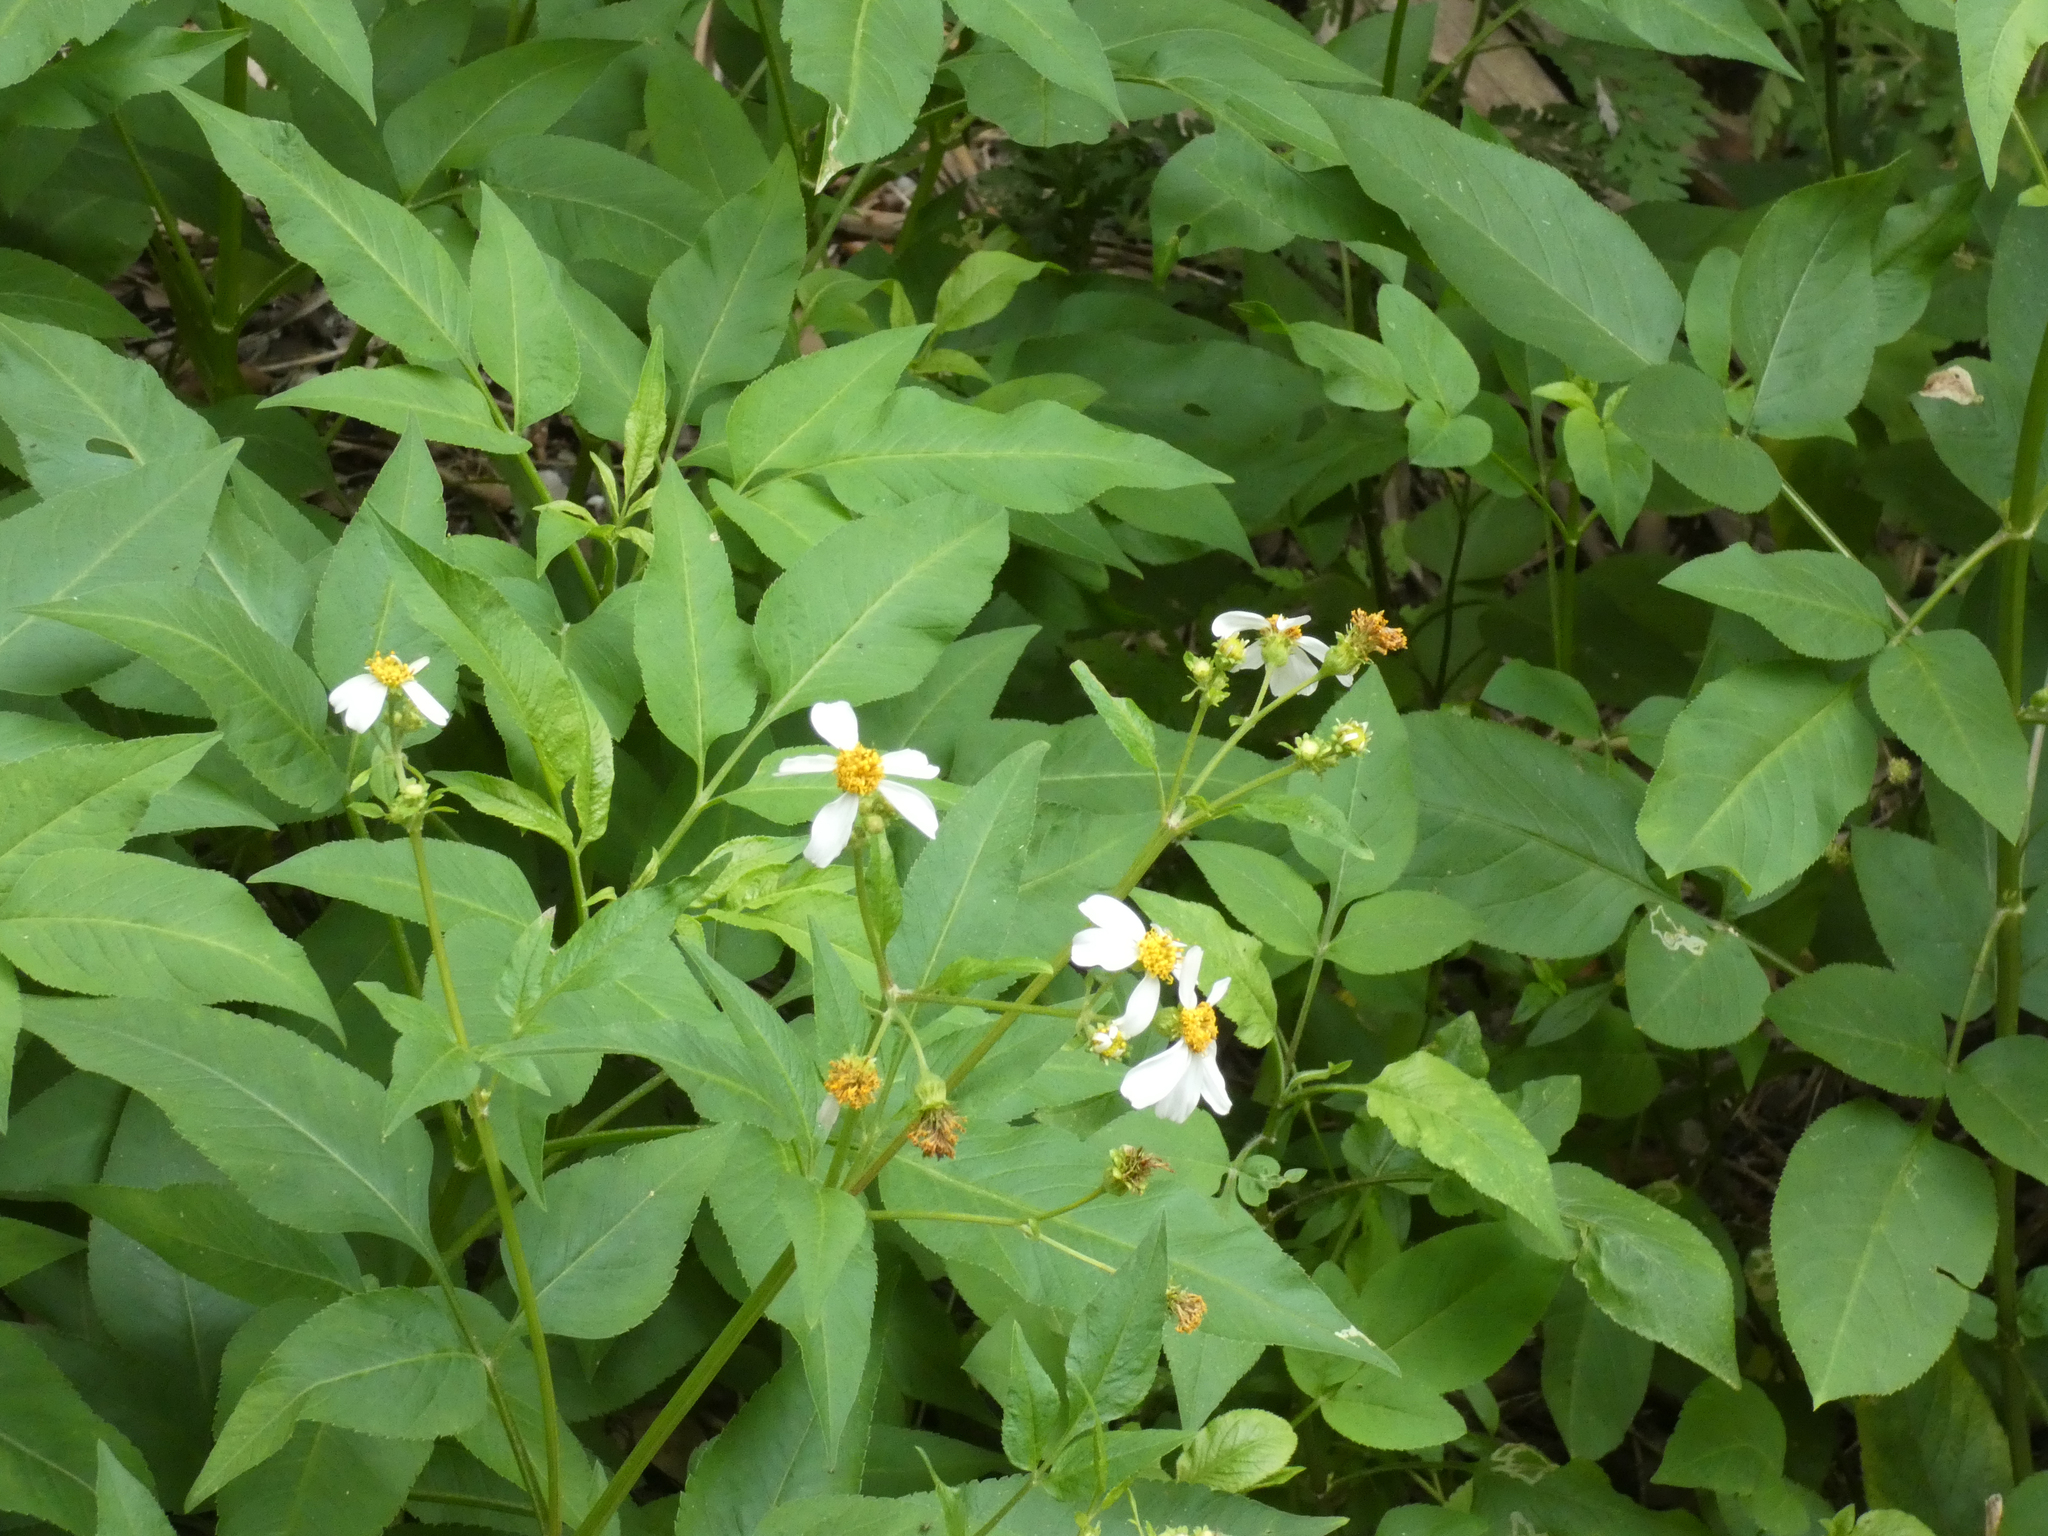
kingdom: Plantae
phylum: Tracheophyta
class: Magnoliopsida
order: Asterales
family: Asteraceae
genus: Bidens
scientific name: Bidens alba
